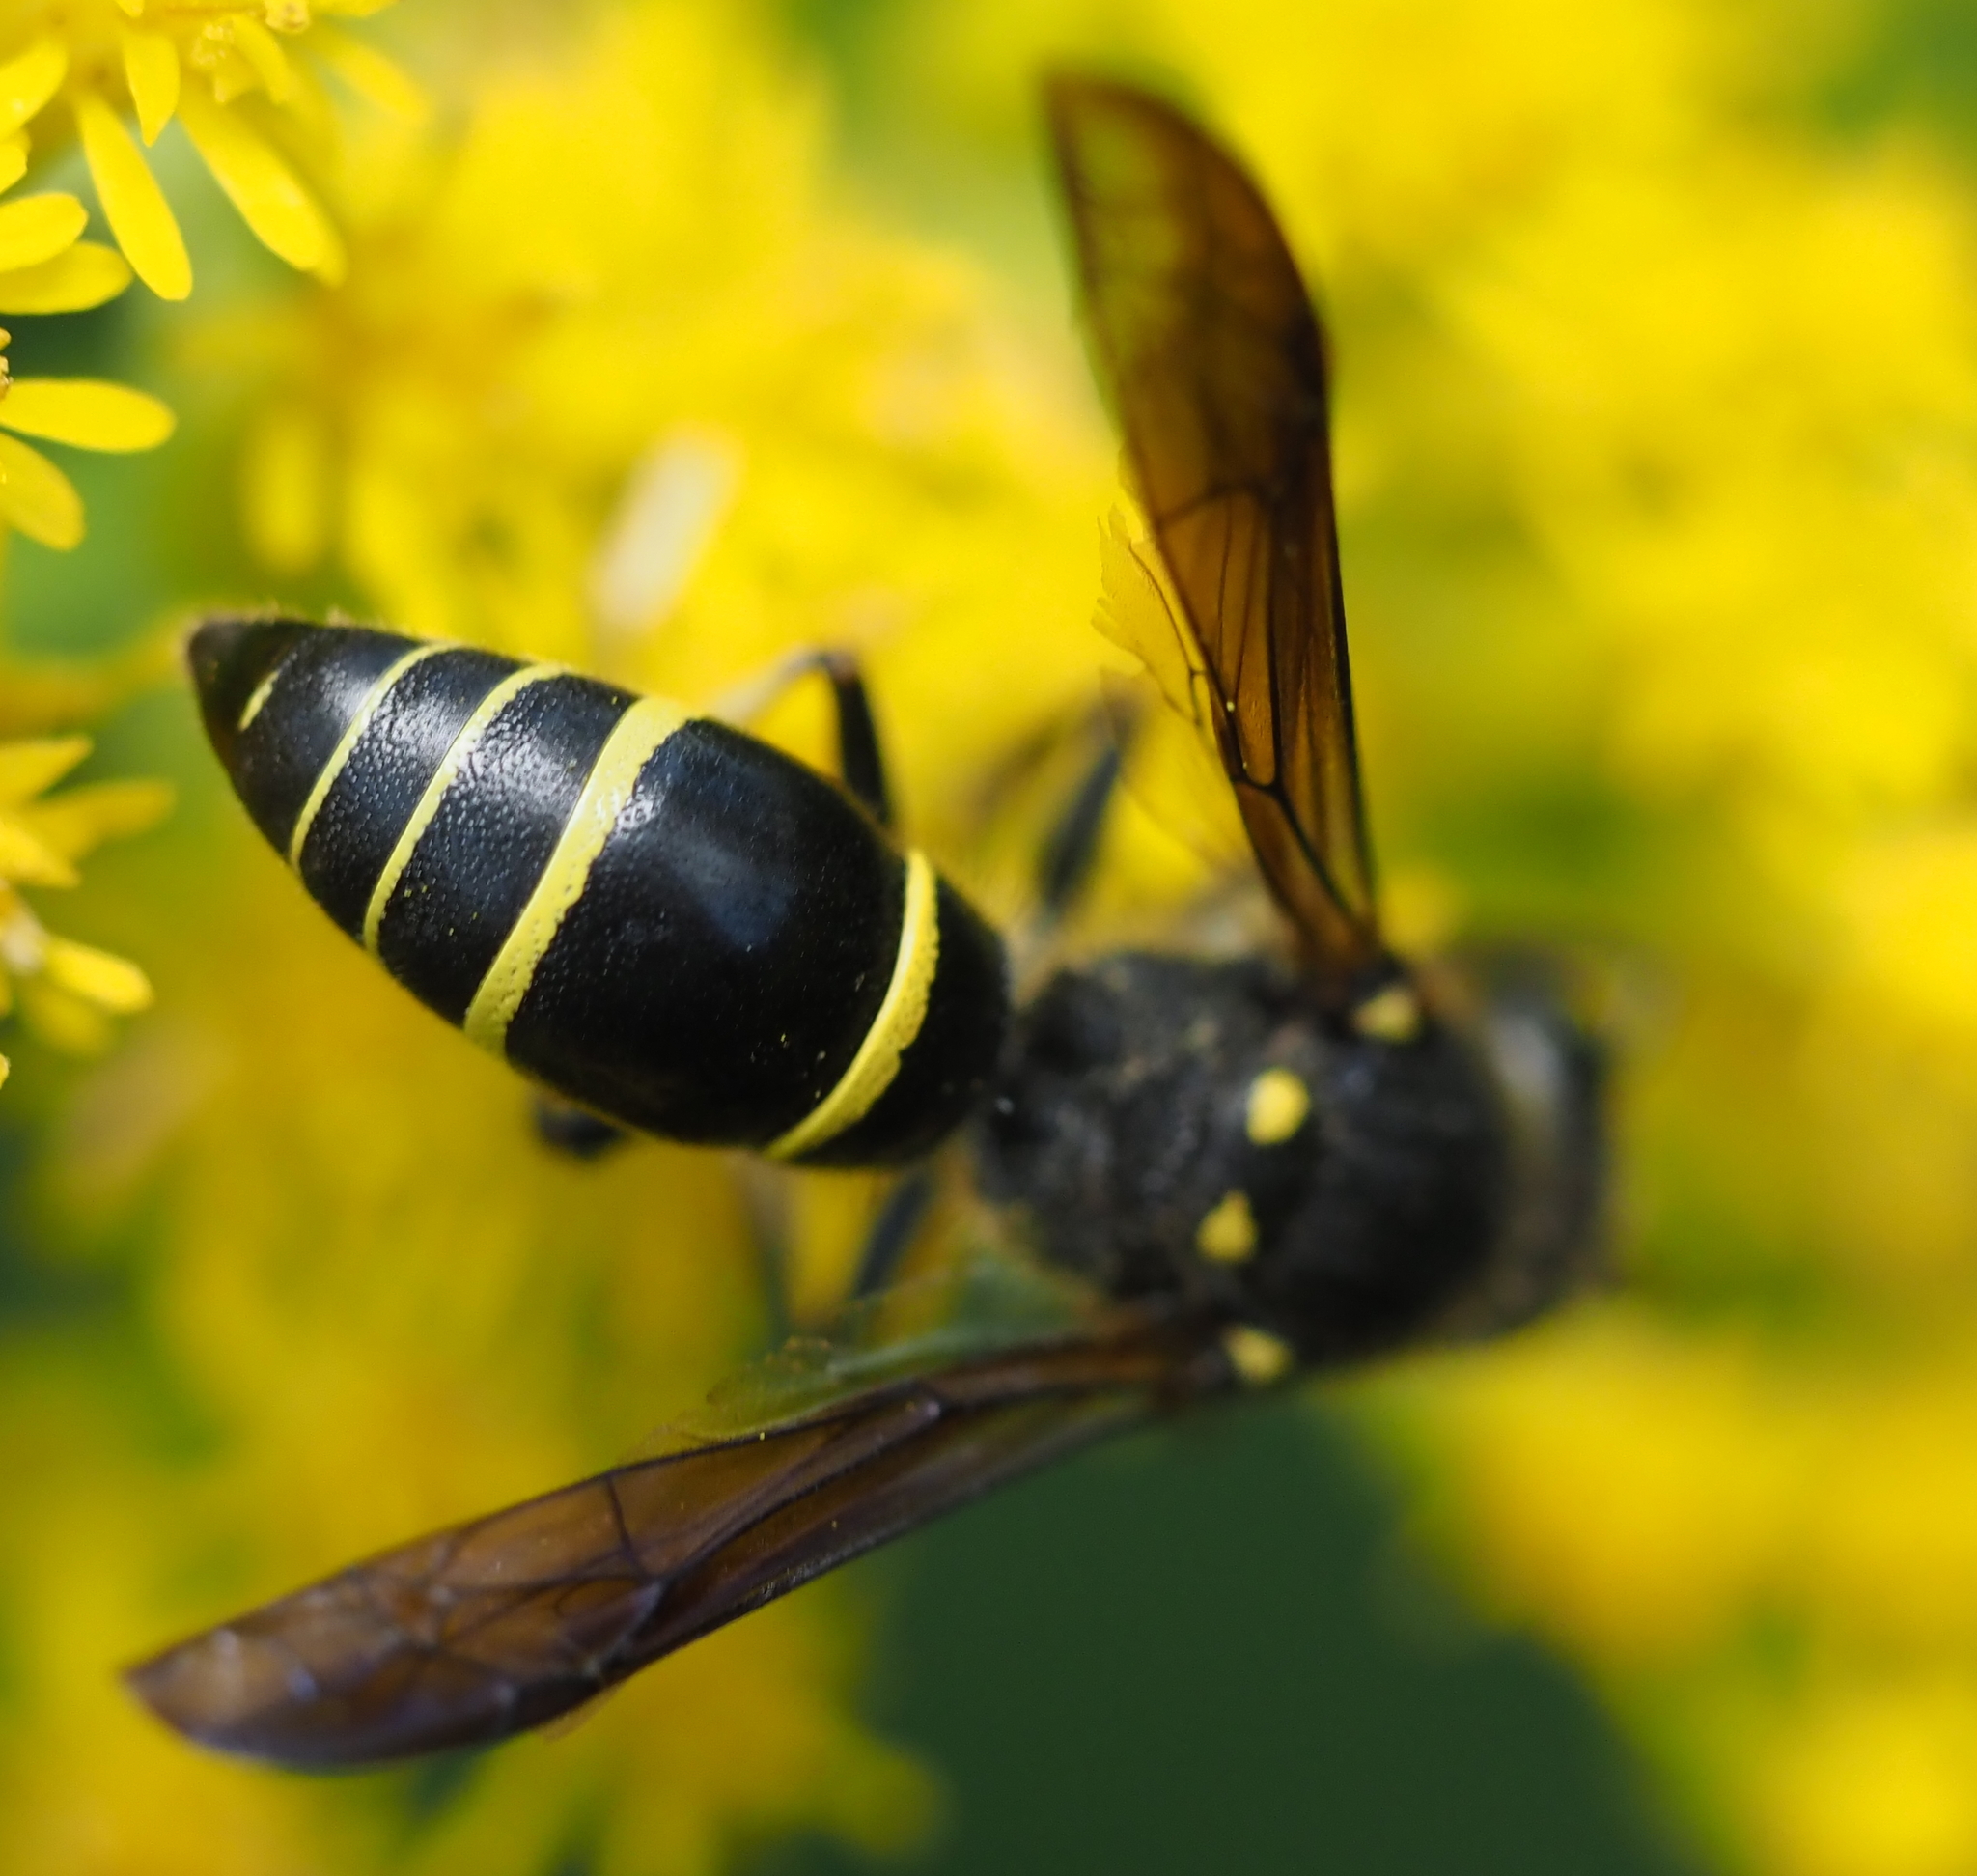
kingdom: Animalia
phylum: Arthropoda
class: Insecta
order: Hymenoptera
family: Vespidae
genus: Ancistrocerus
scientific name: Ancistrocerus
